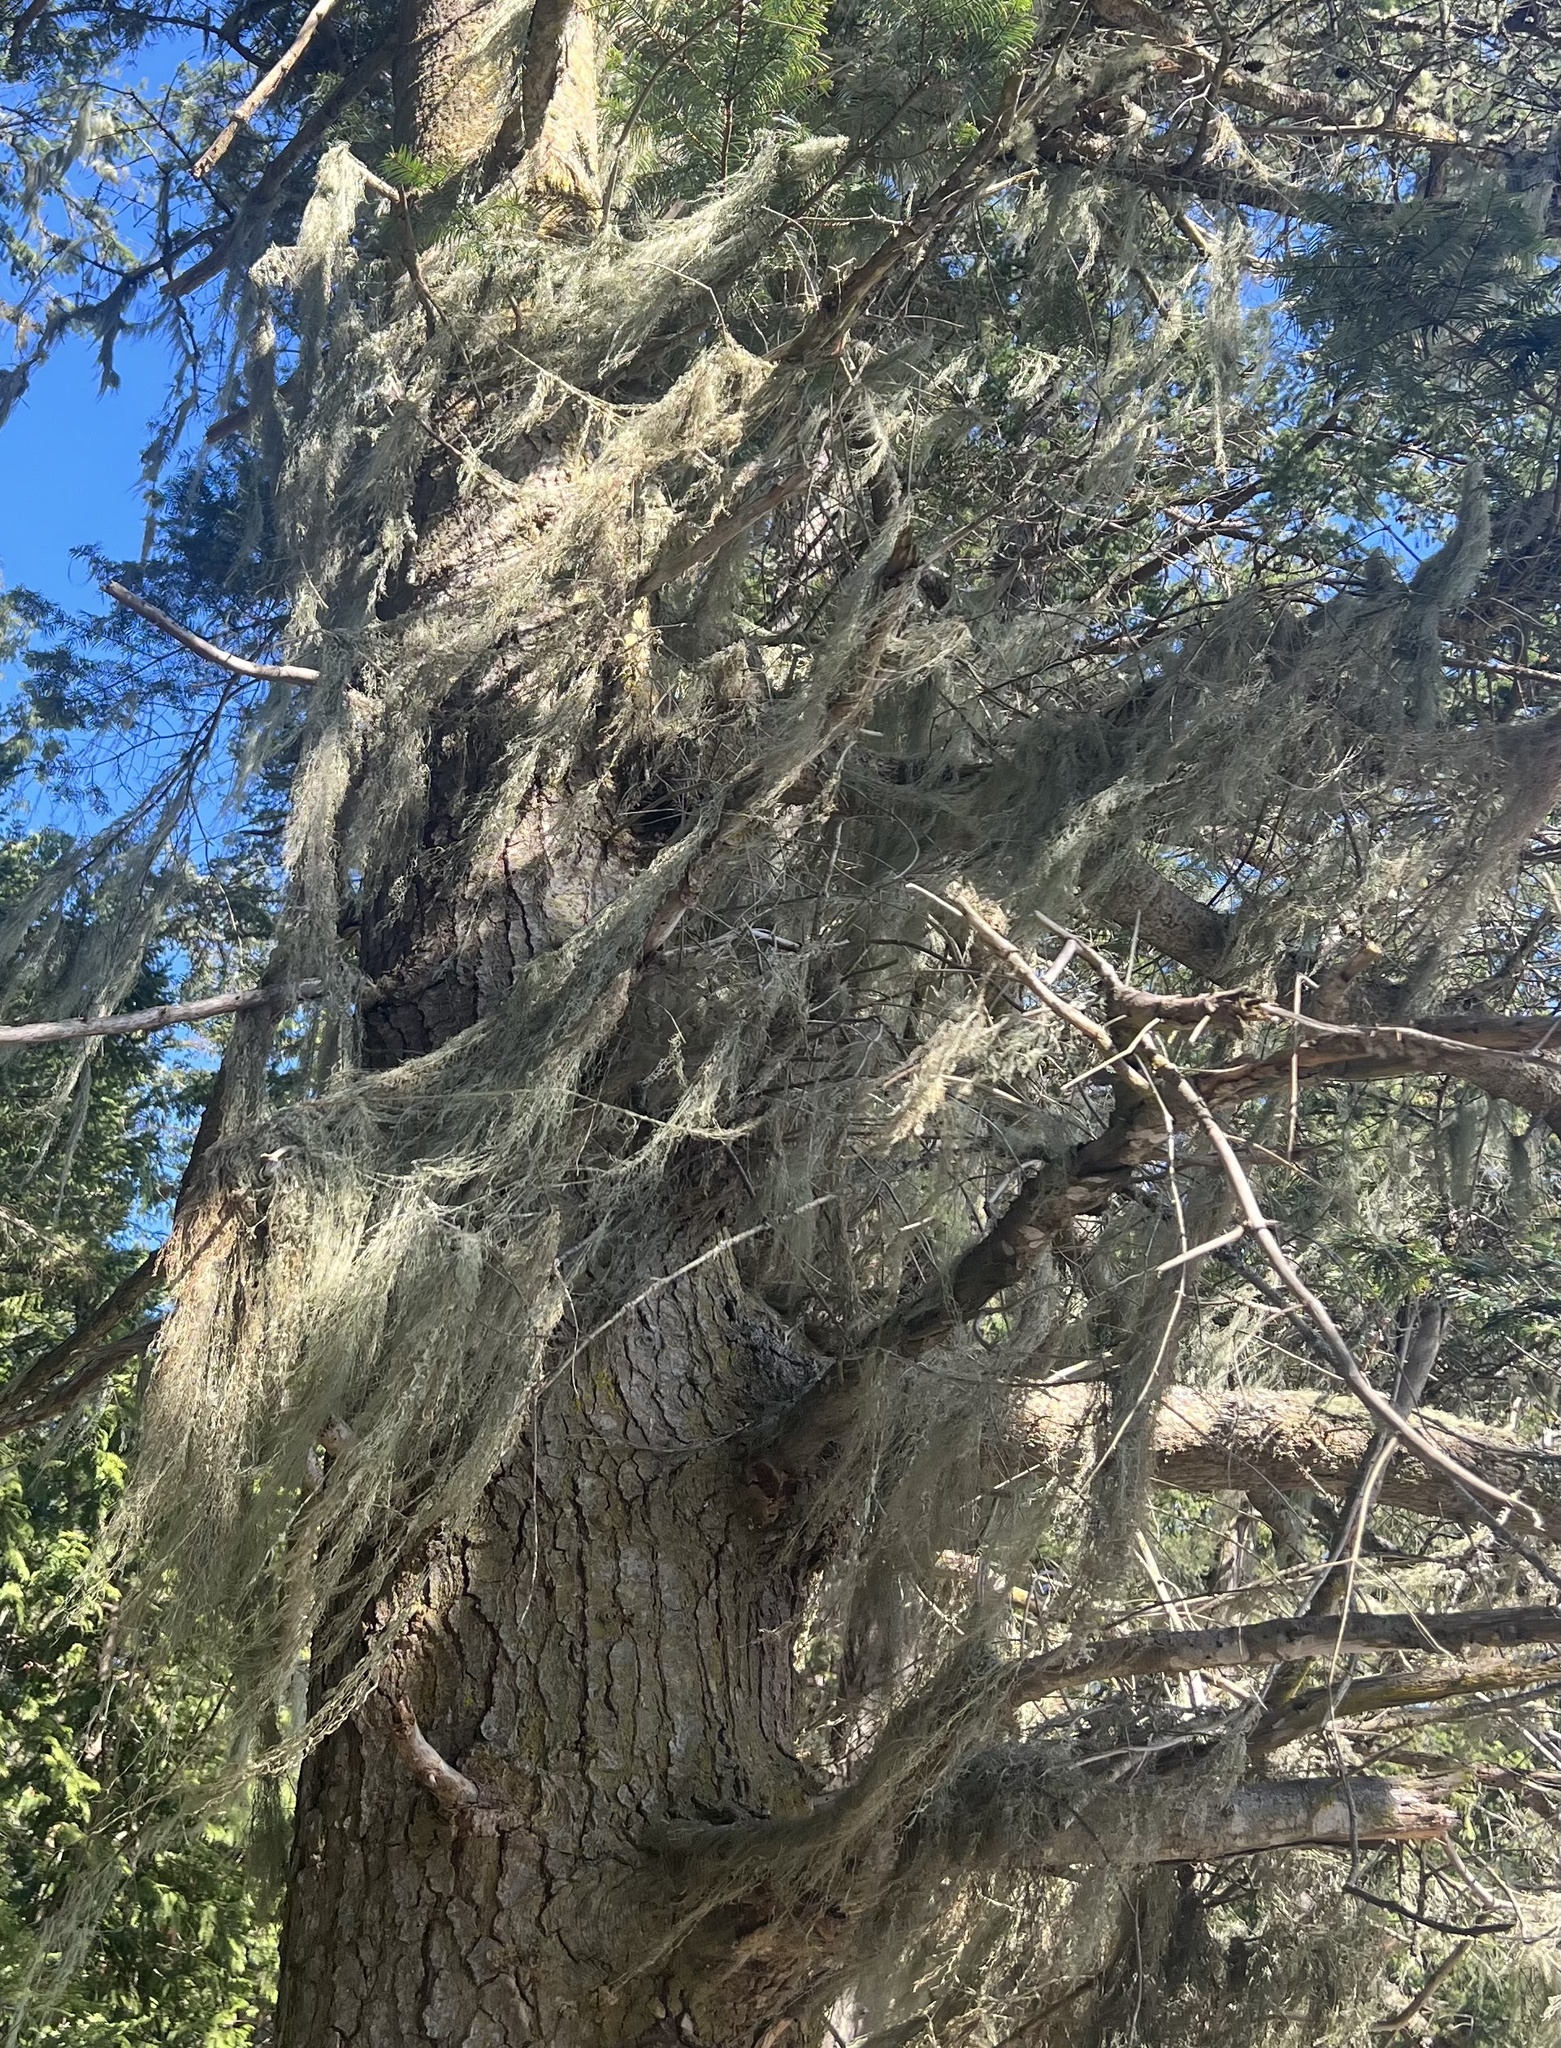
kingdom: Fungi
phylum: Ascomycota
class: Lecanoromycetes
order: Lecanorales
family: Ramalinaceae
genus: Ramalina
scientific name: Ramalina menziesii
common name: Lace lichen
